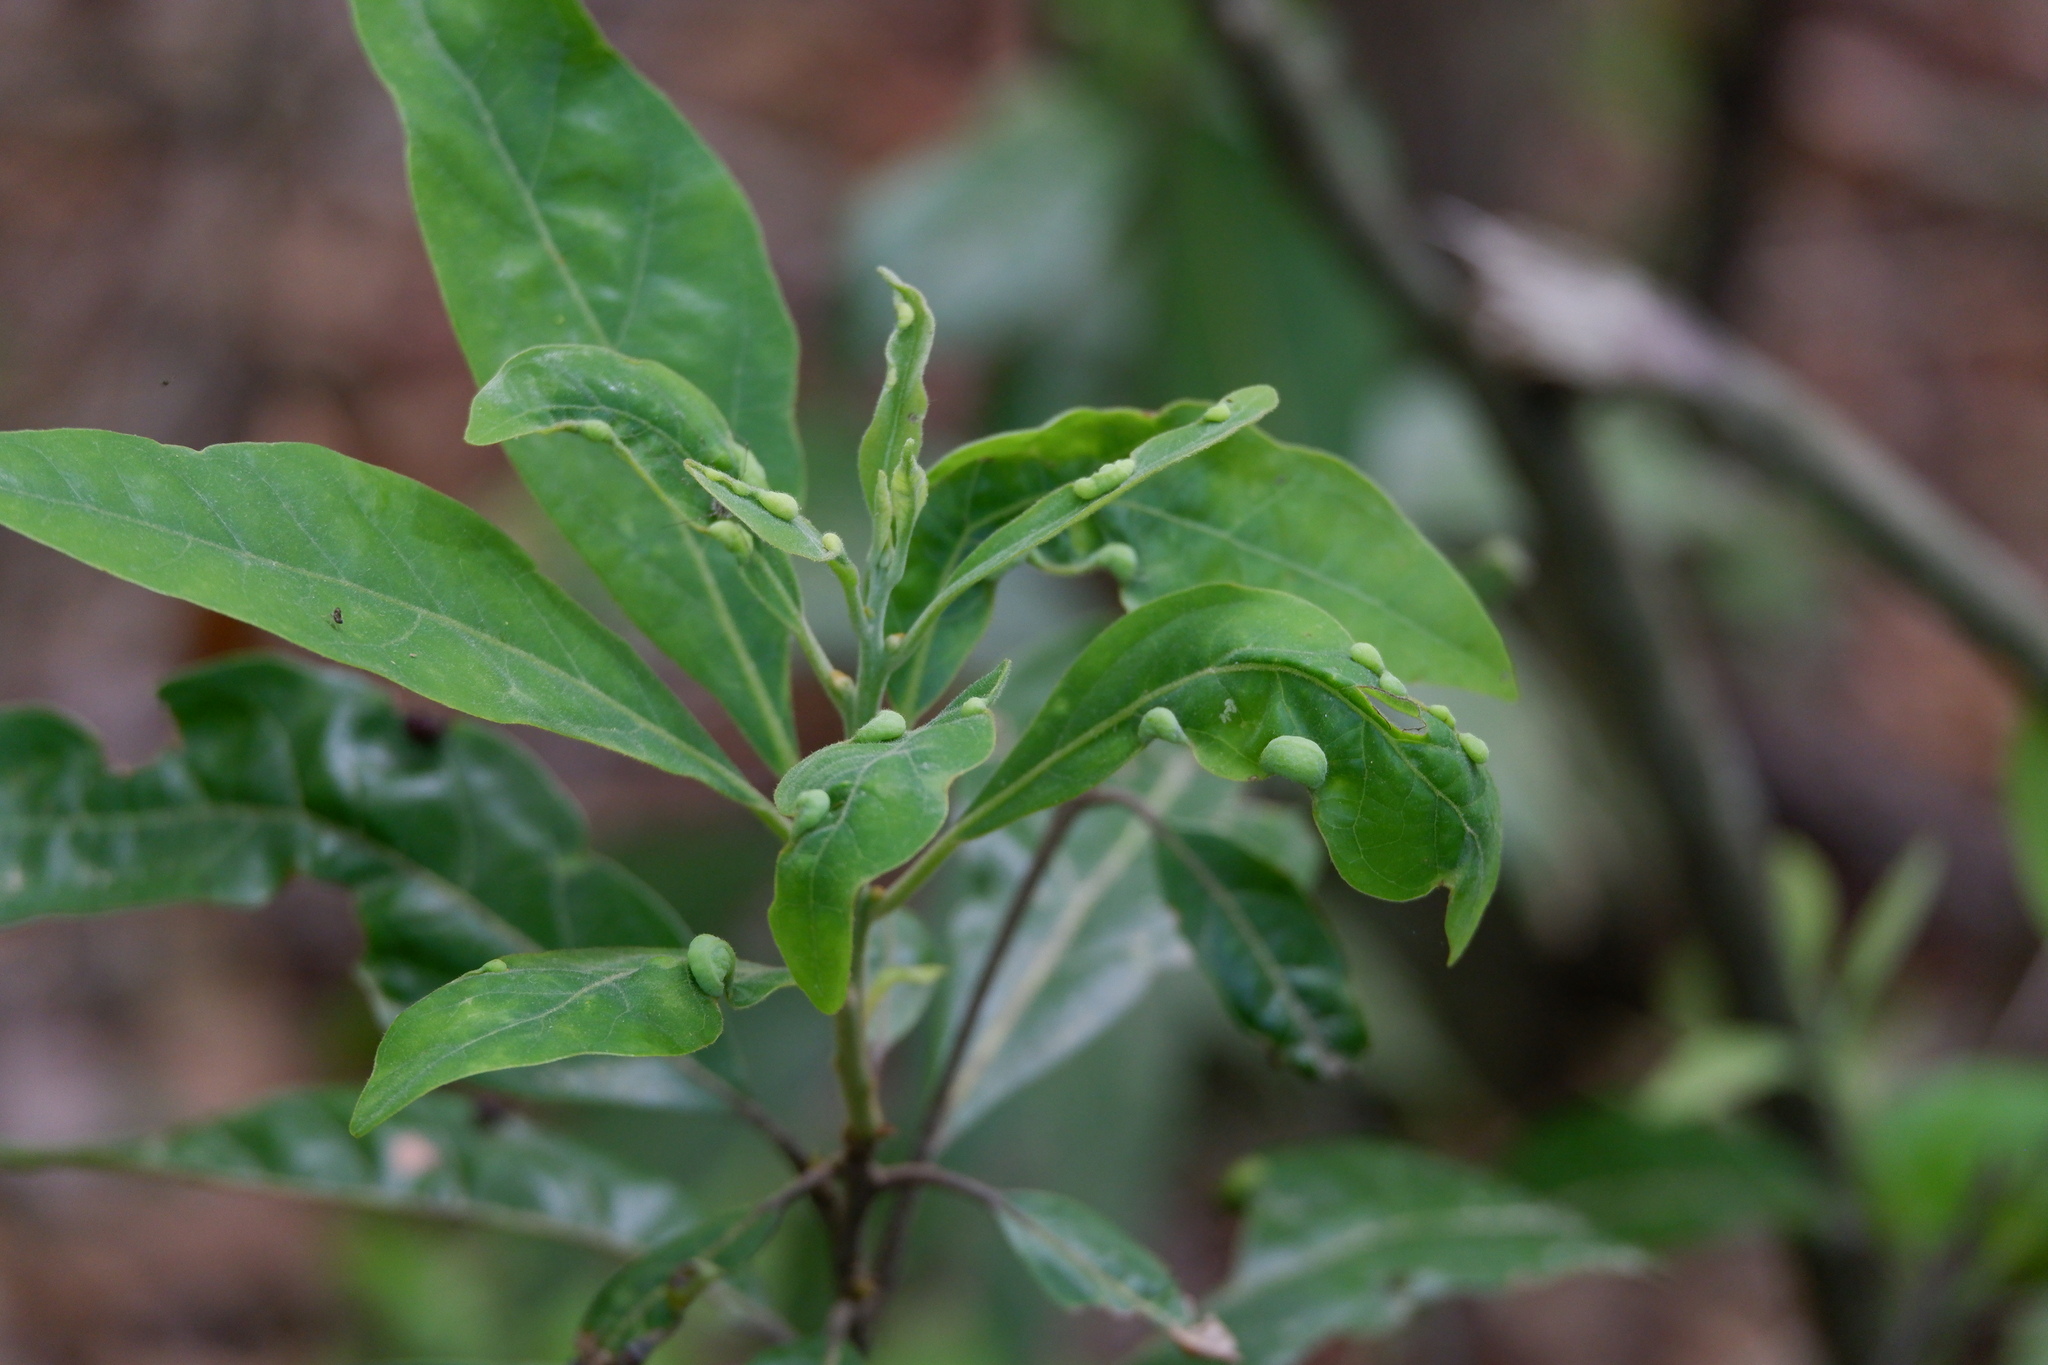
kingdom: Animalia
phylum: Arthropoda
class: Insecta
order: Hemiptera
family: Triozidae
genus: Trioza
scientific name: Trioza magnoliae
